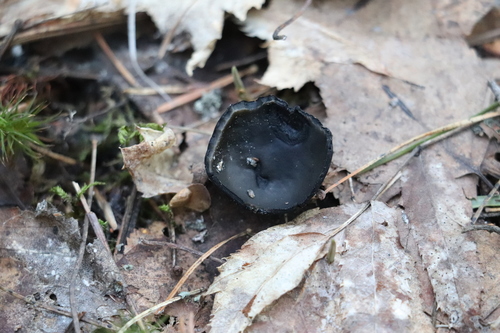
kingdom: Fungi
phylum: Ascomycota
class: Pezizomycetes
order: Pezizales
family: Sarcosomataceae
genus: Pseudoplectania
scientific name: Pseudoplectania melaena
